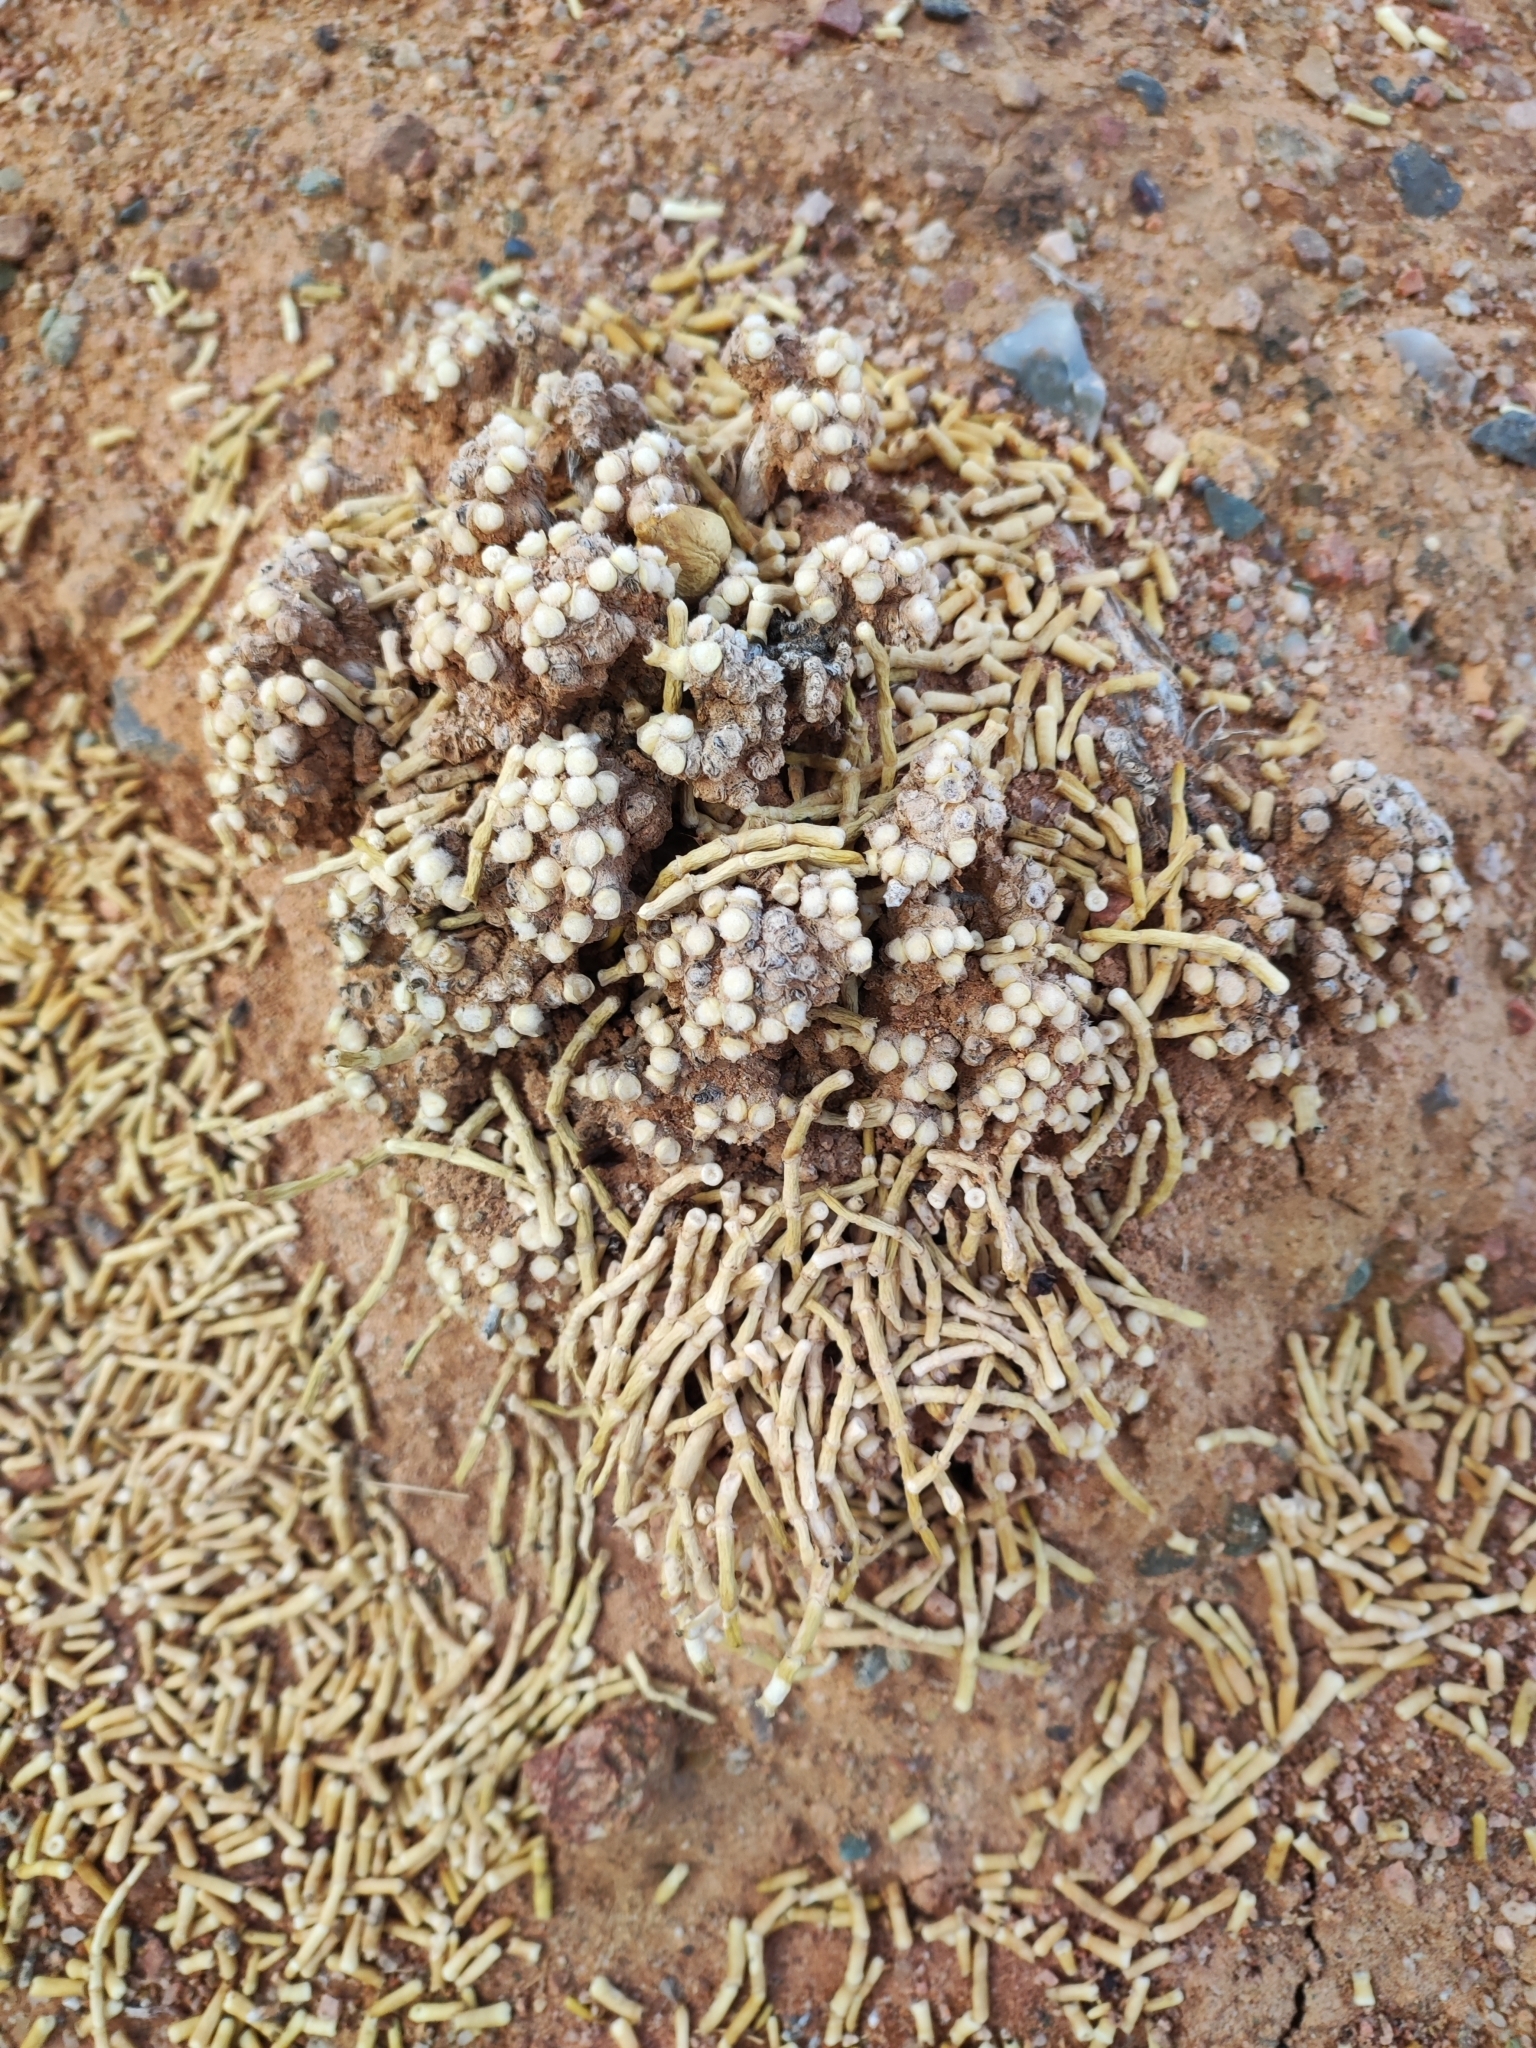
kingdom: Plantae
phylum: Tracheophyta
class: Magnoliopsida
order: Caryophyllales
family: Amaranthaceae
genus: Anabasis
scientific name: Anabasis cretacea
